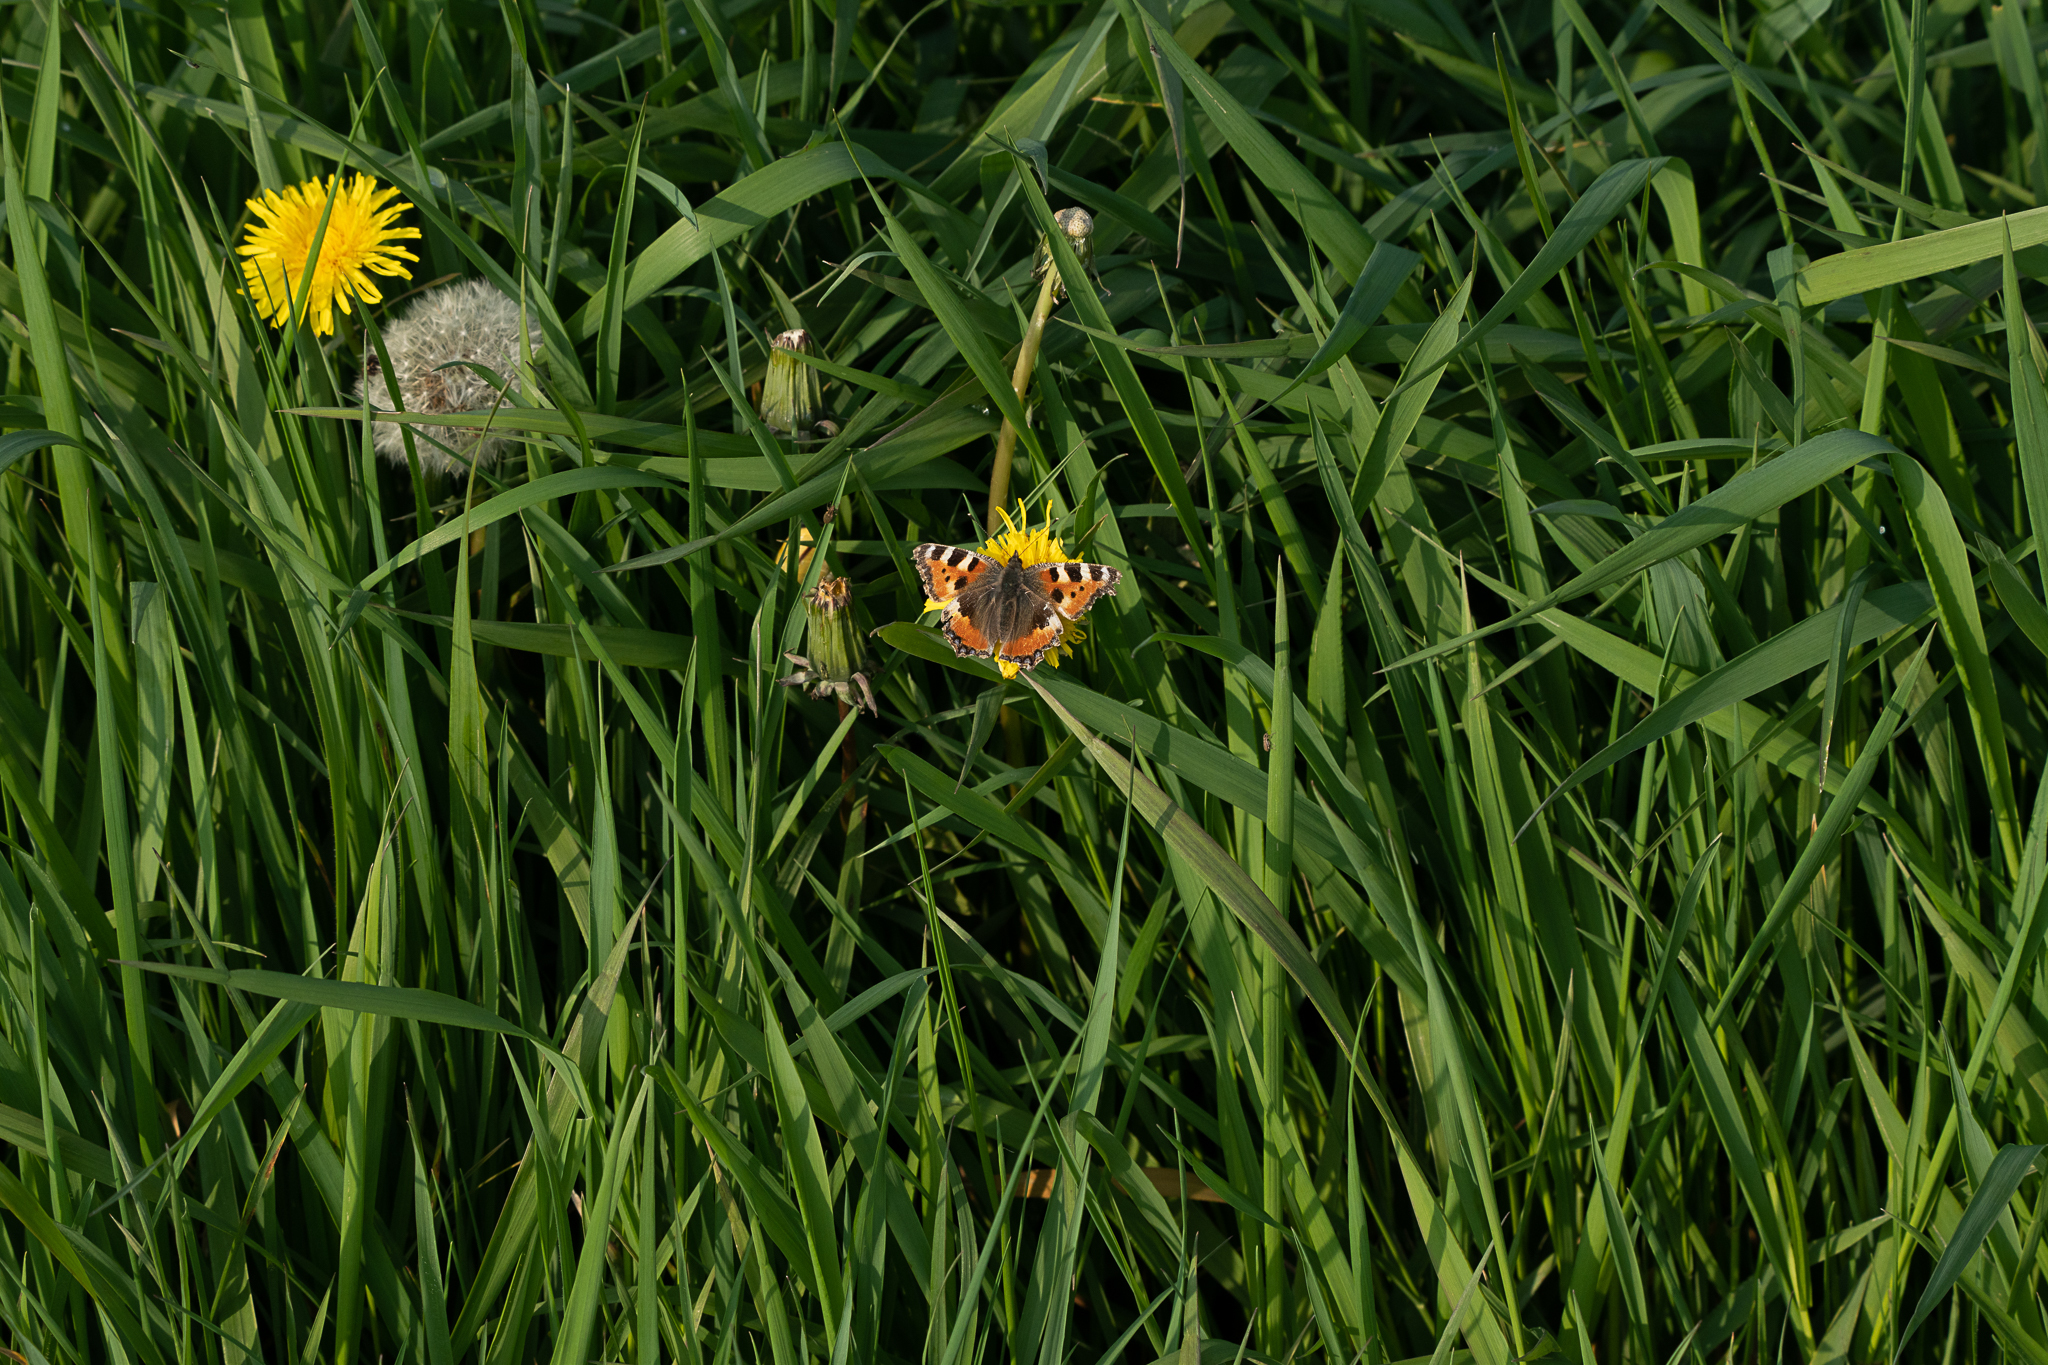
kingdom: Animalia
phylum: Arthropoda
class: Insecta
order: Lepidoptera
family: Nymphalidae
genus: Aglais
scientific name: Aglais urticae
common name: Small tortoiseshell
